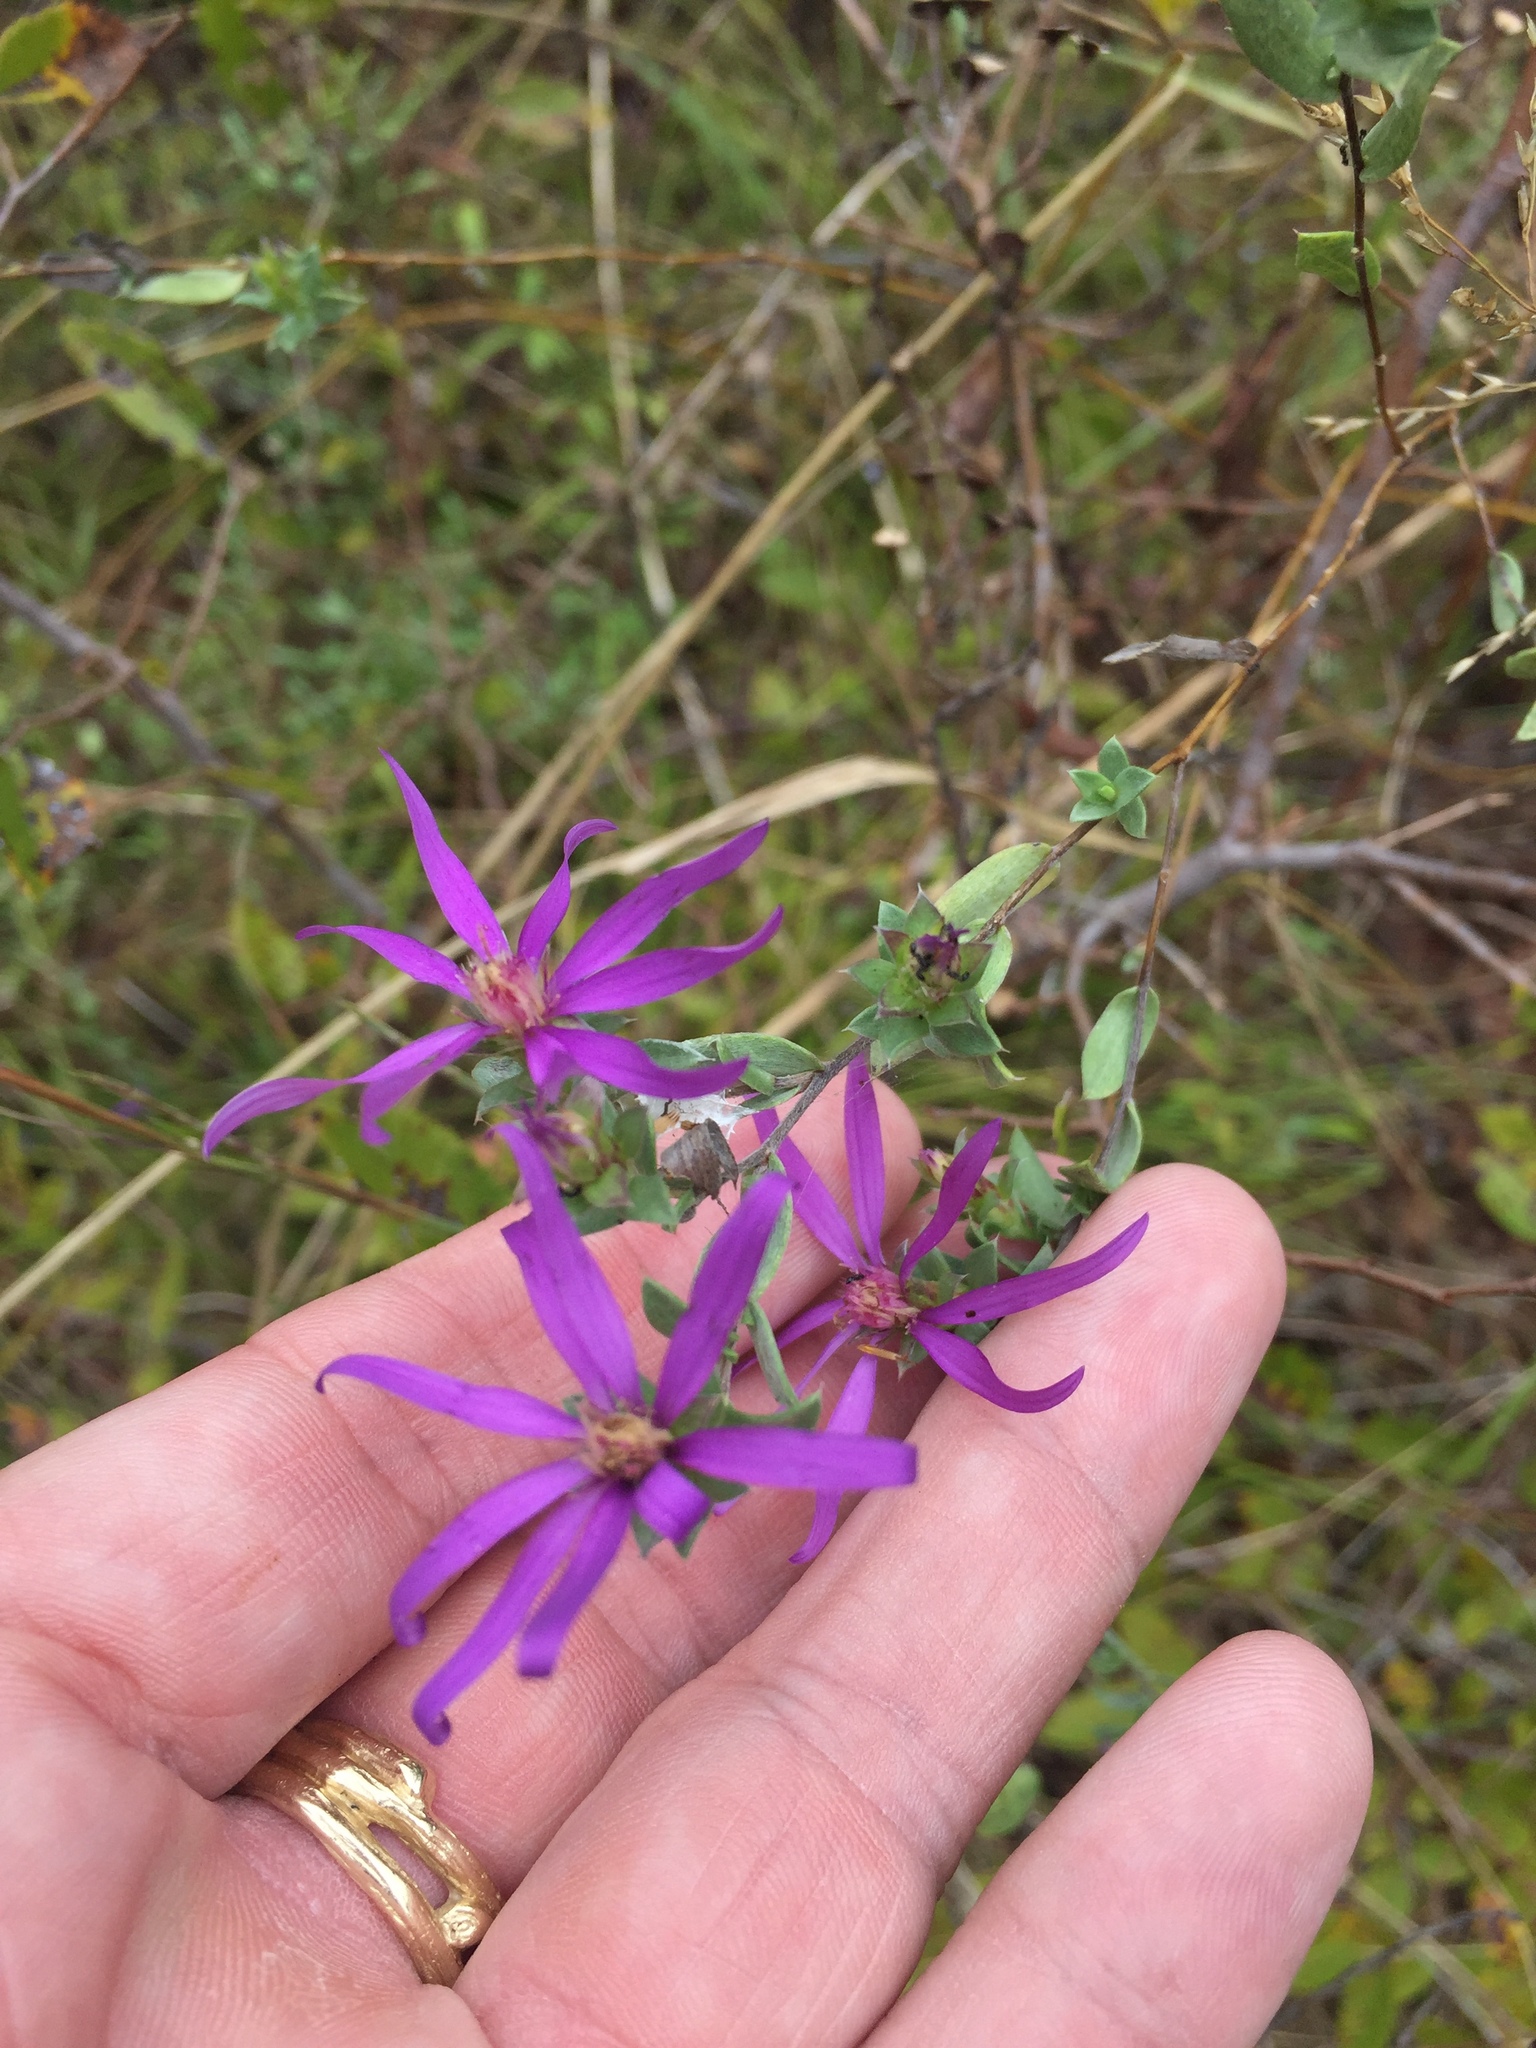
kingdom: Plantae
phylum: Tracheophyta
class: Magnoliopsida
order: Asterales
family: Asteraceae
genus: Symphyotrichum
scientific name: Symphyotrichum sericeum
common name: Silky aster
